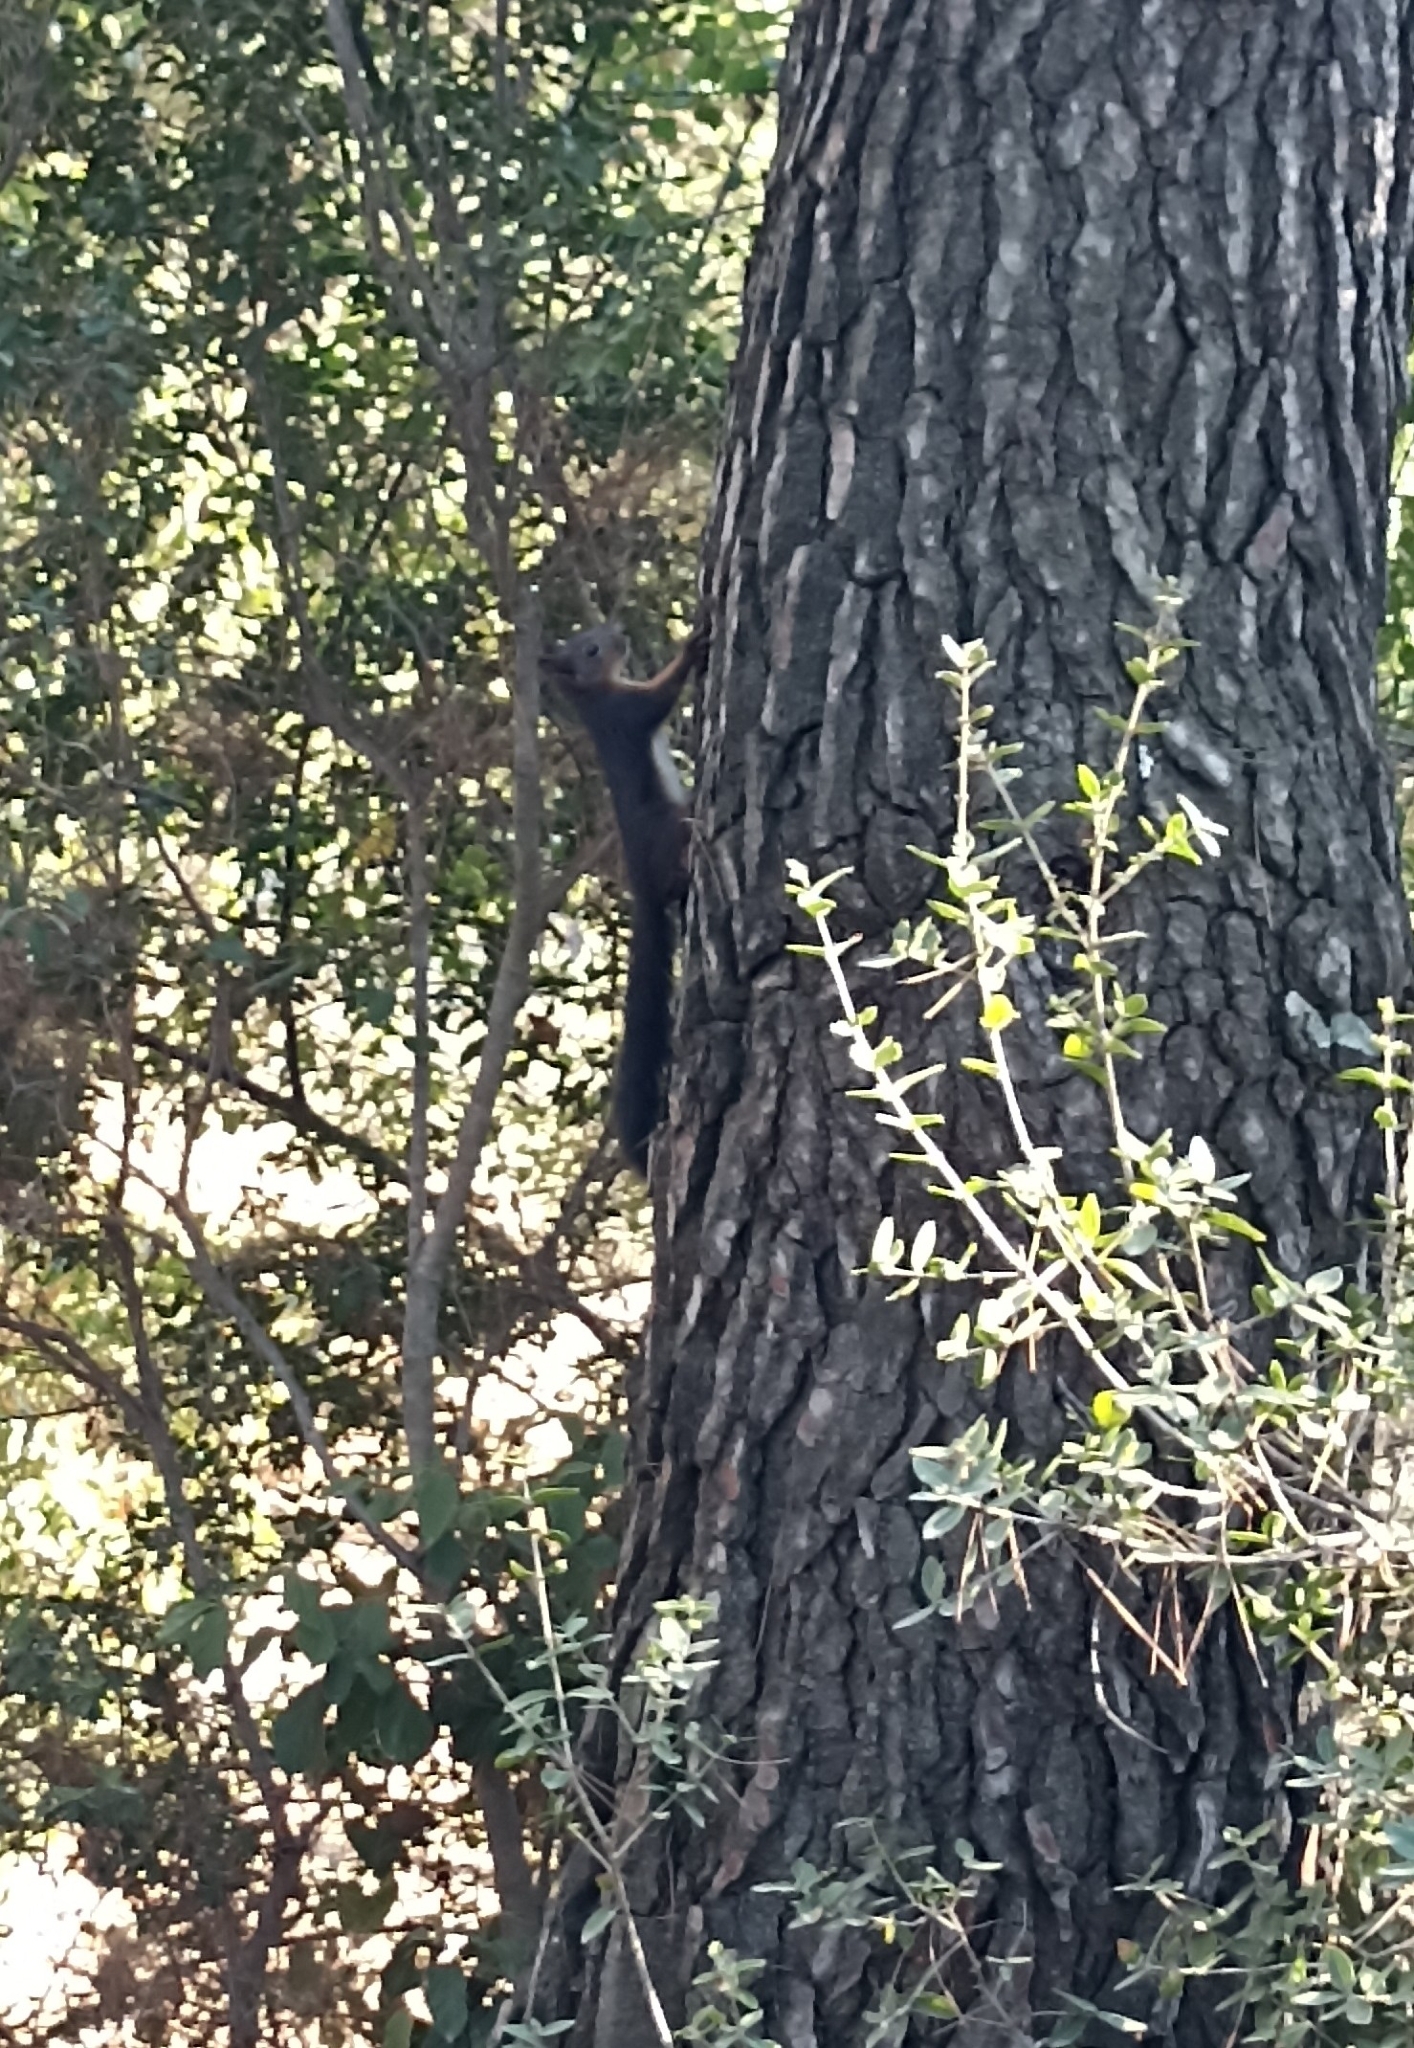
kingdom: Animalia
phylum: Chordata
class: Mammalia
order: Rodentia
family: Sciuridae
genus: Sciurus
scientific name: Sciurus vulgaris
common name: Eurasian red squirrel
